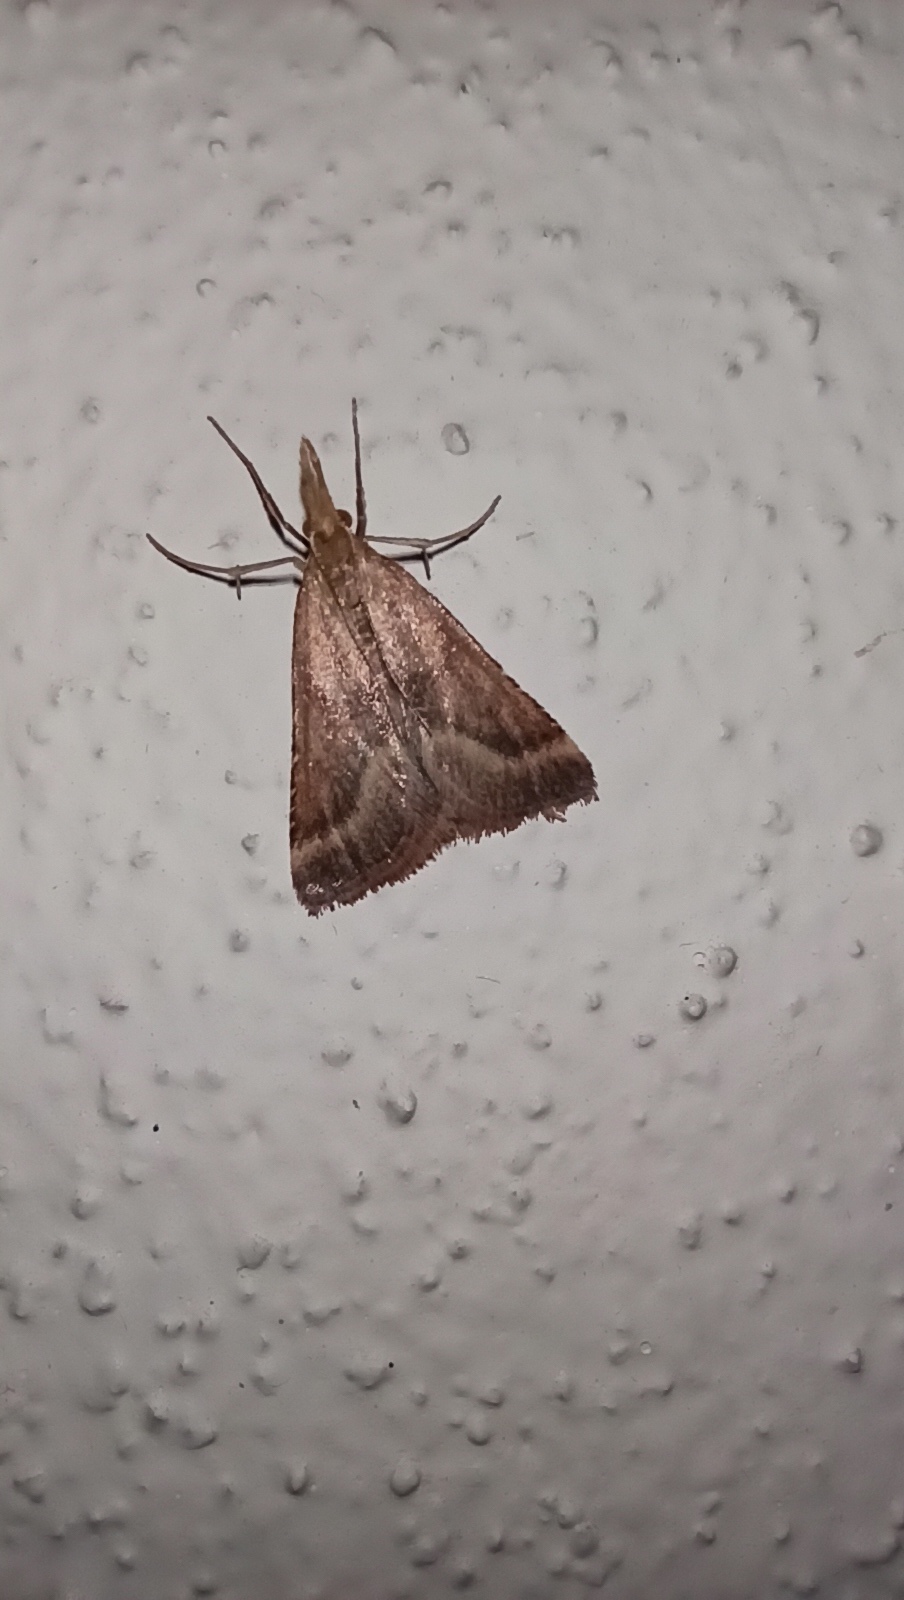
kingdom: Animalia
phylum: Arthropoda
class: Insecta
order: Lepidoptera
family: Pyralidae
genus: Synaphe
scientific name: Synaphe punctalis
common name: Long-legged tabby
